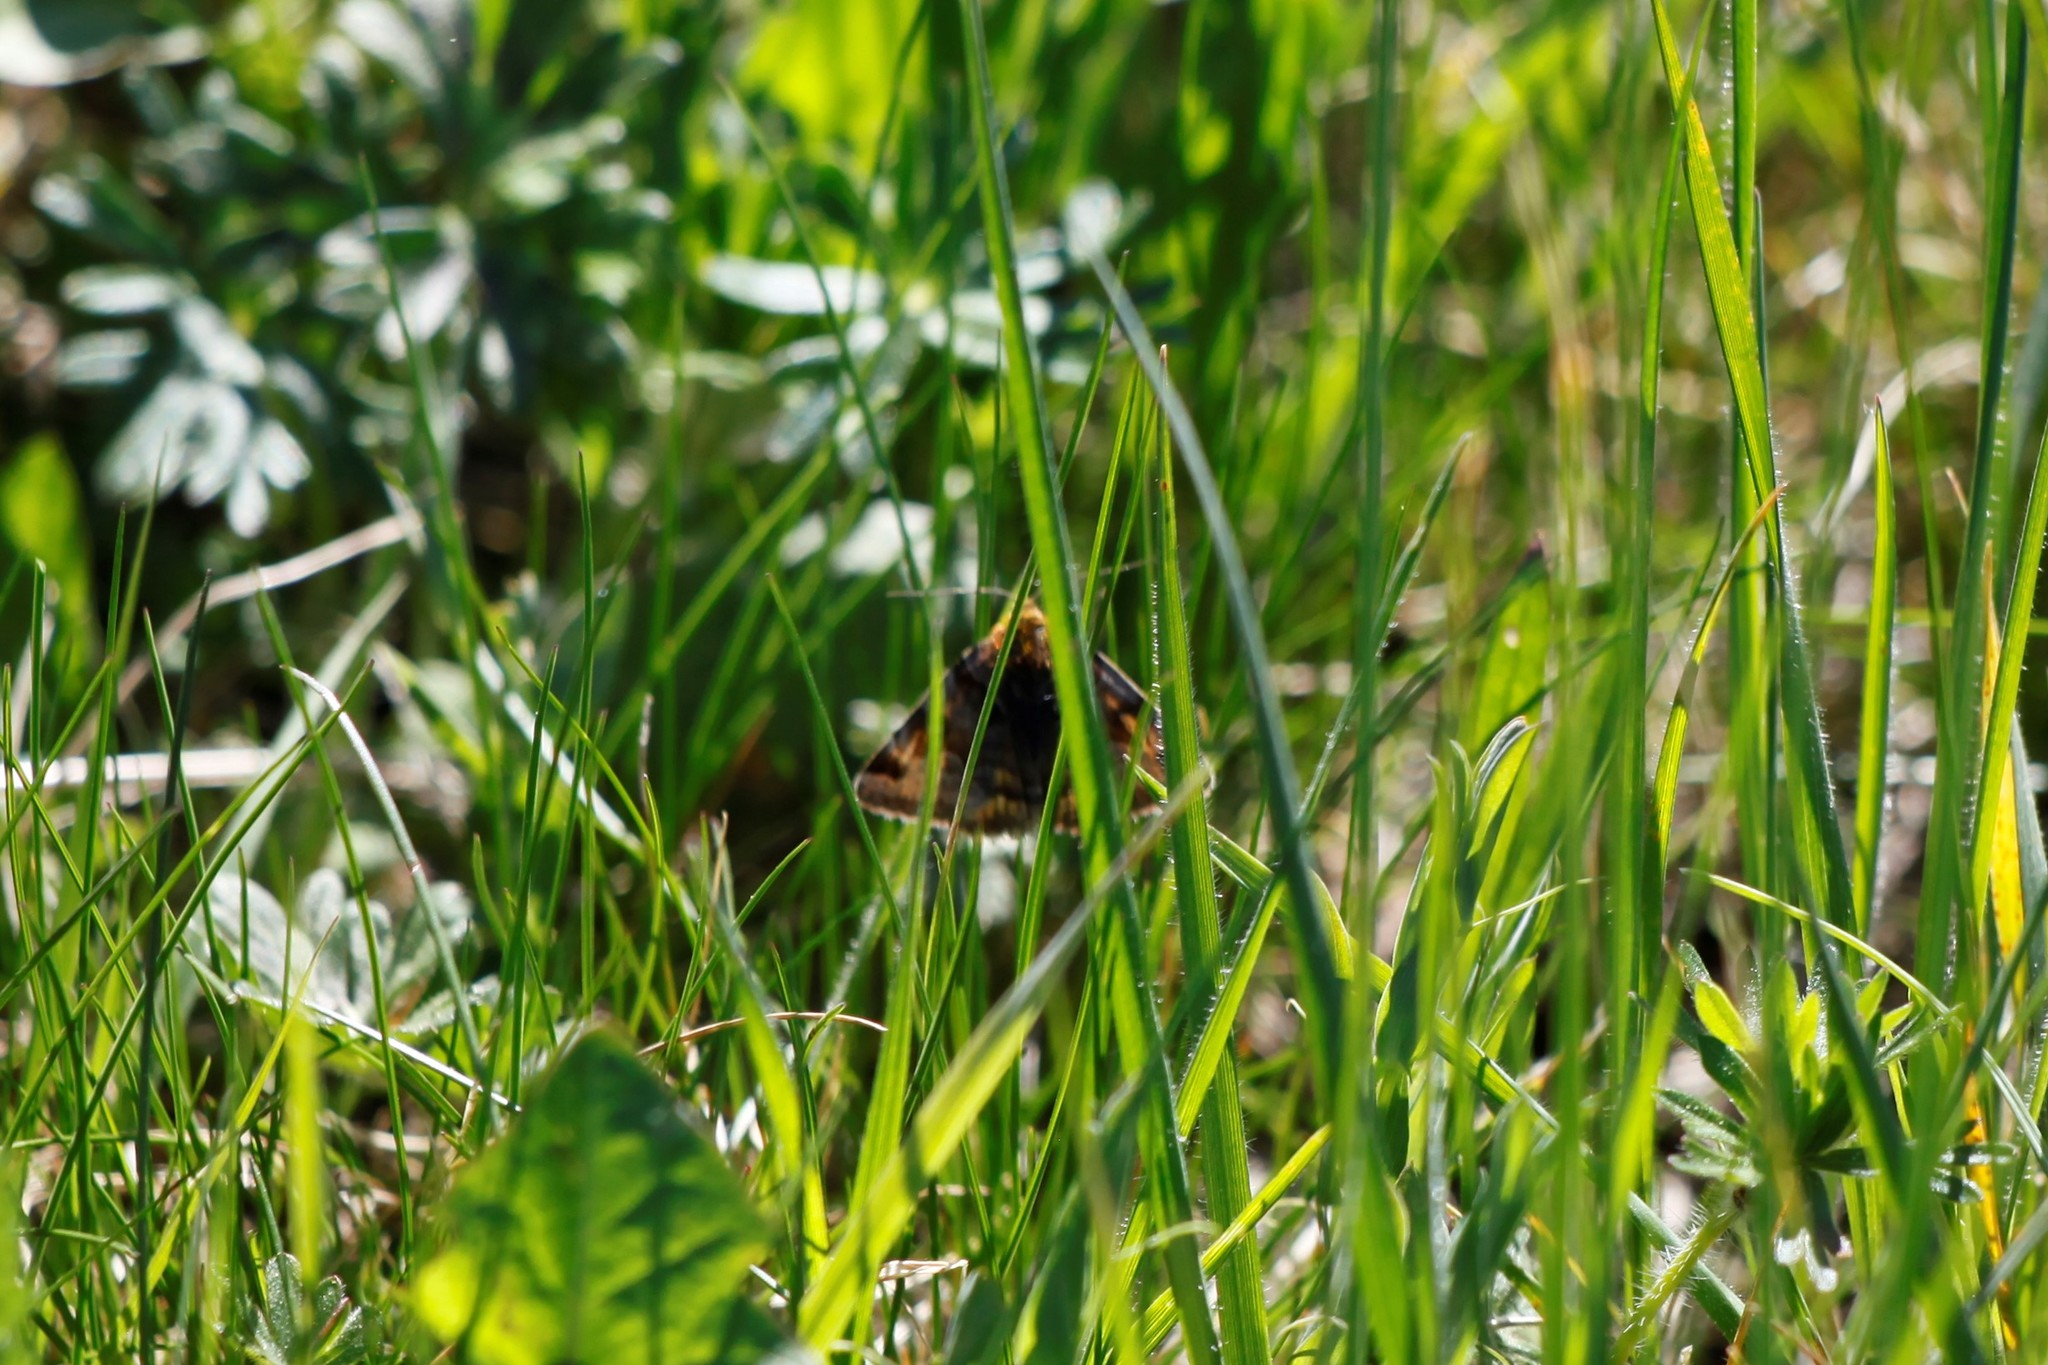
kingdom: Animalia
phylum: Arthropoda
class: Insecta
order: Lepidoptera
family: Erebidae
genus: Euclidia
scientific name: Euclidia glyphica
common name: Burnet companion
